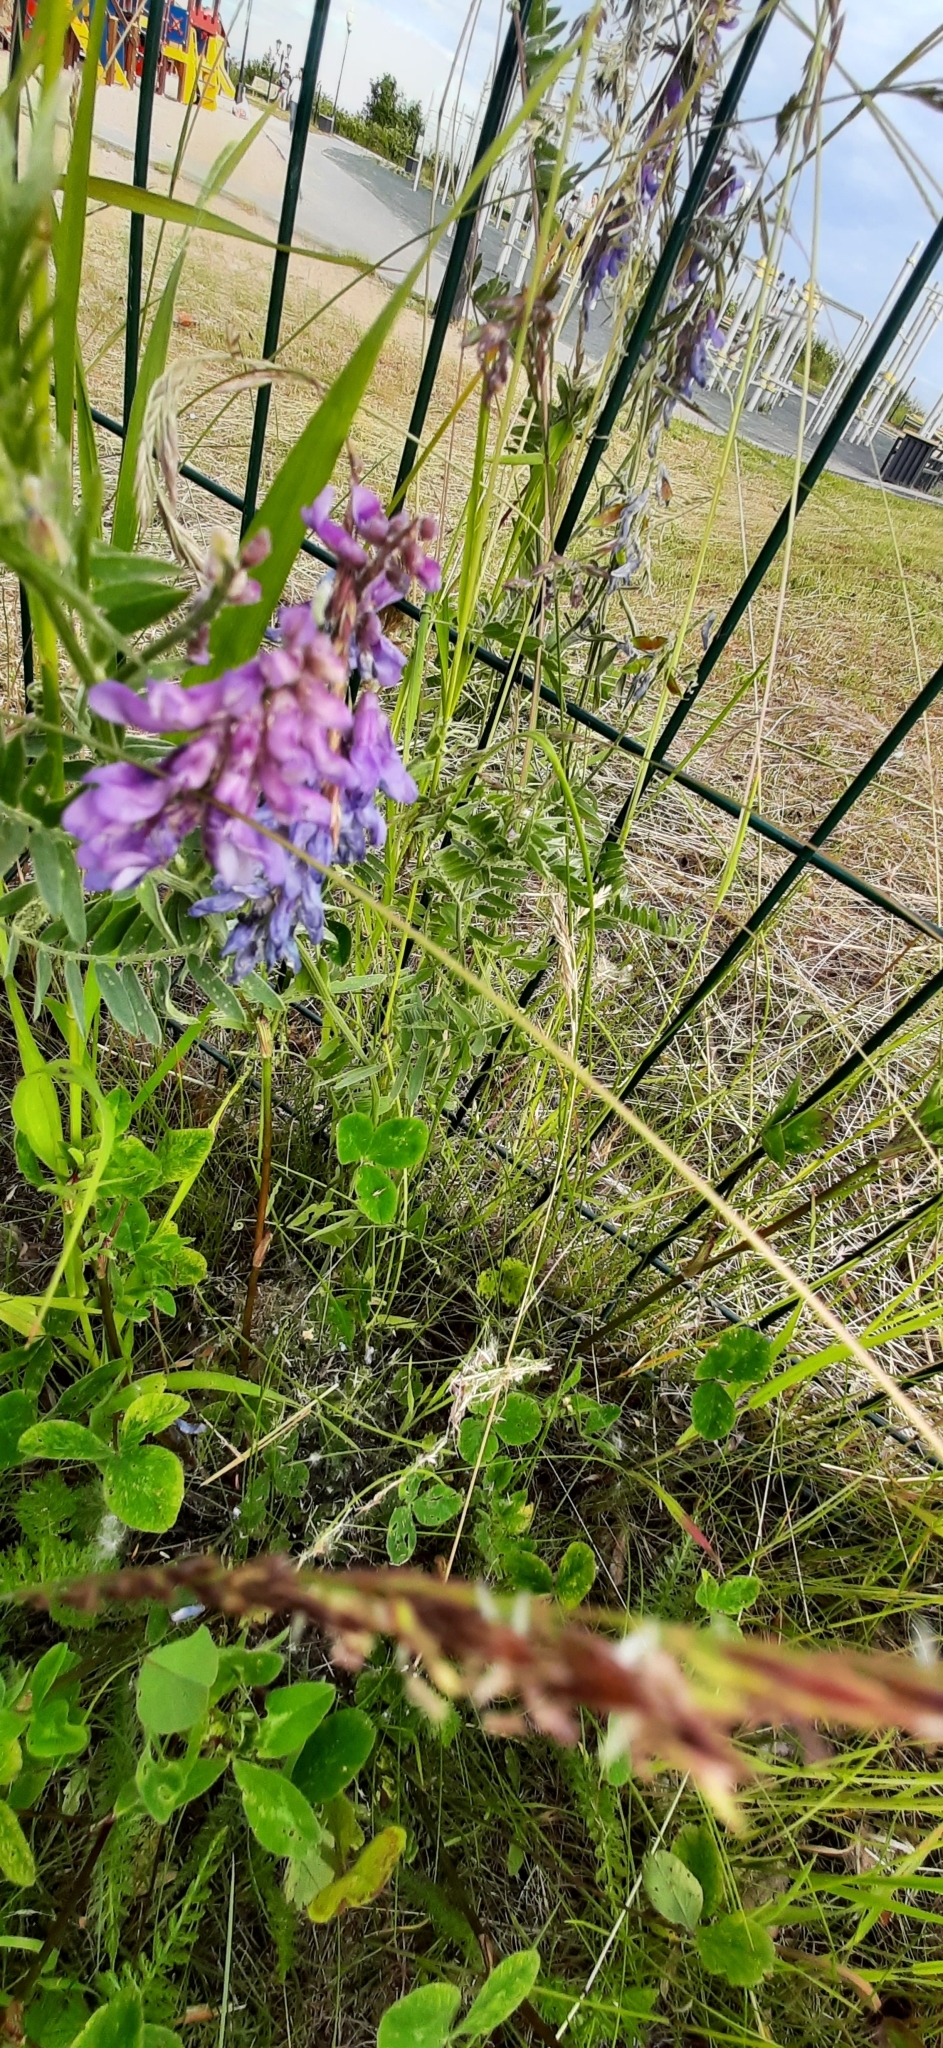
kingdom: Plantae
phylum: Tracheophyta
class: Magnoliopsida
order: Fabales
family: Fabaceae
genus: Vicia
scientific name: Vicia cracca
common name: Bird vetch
